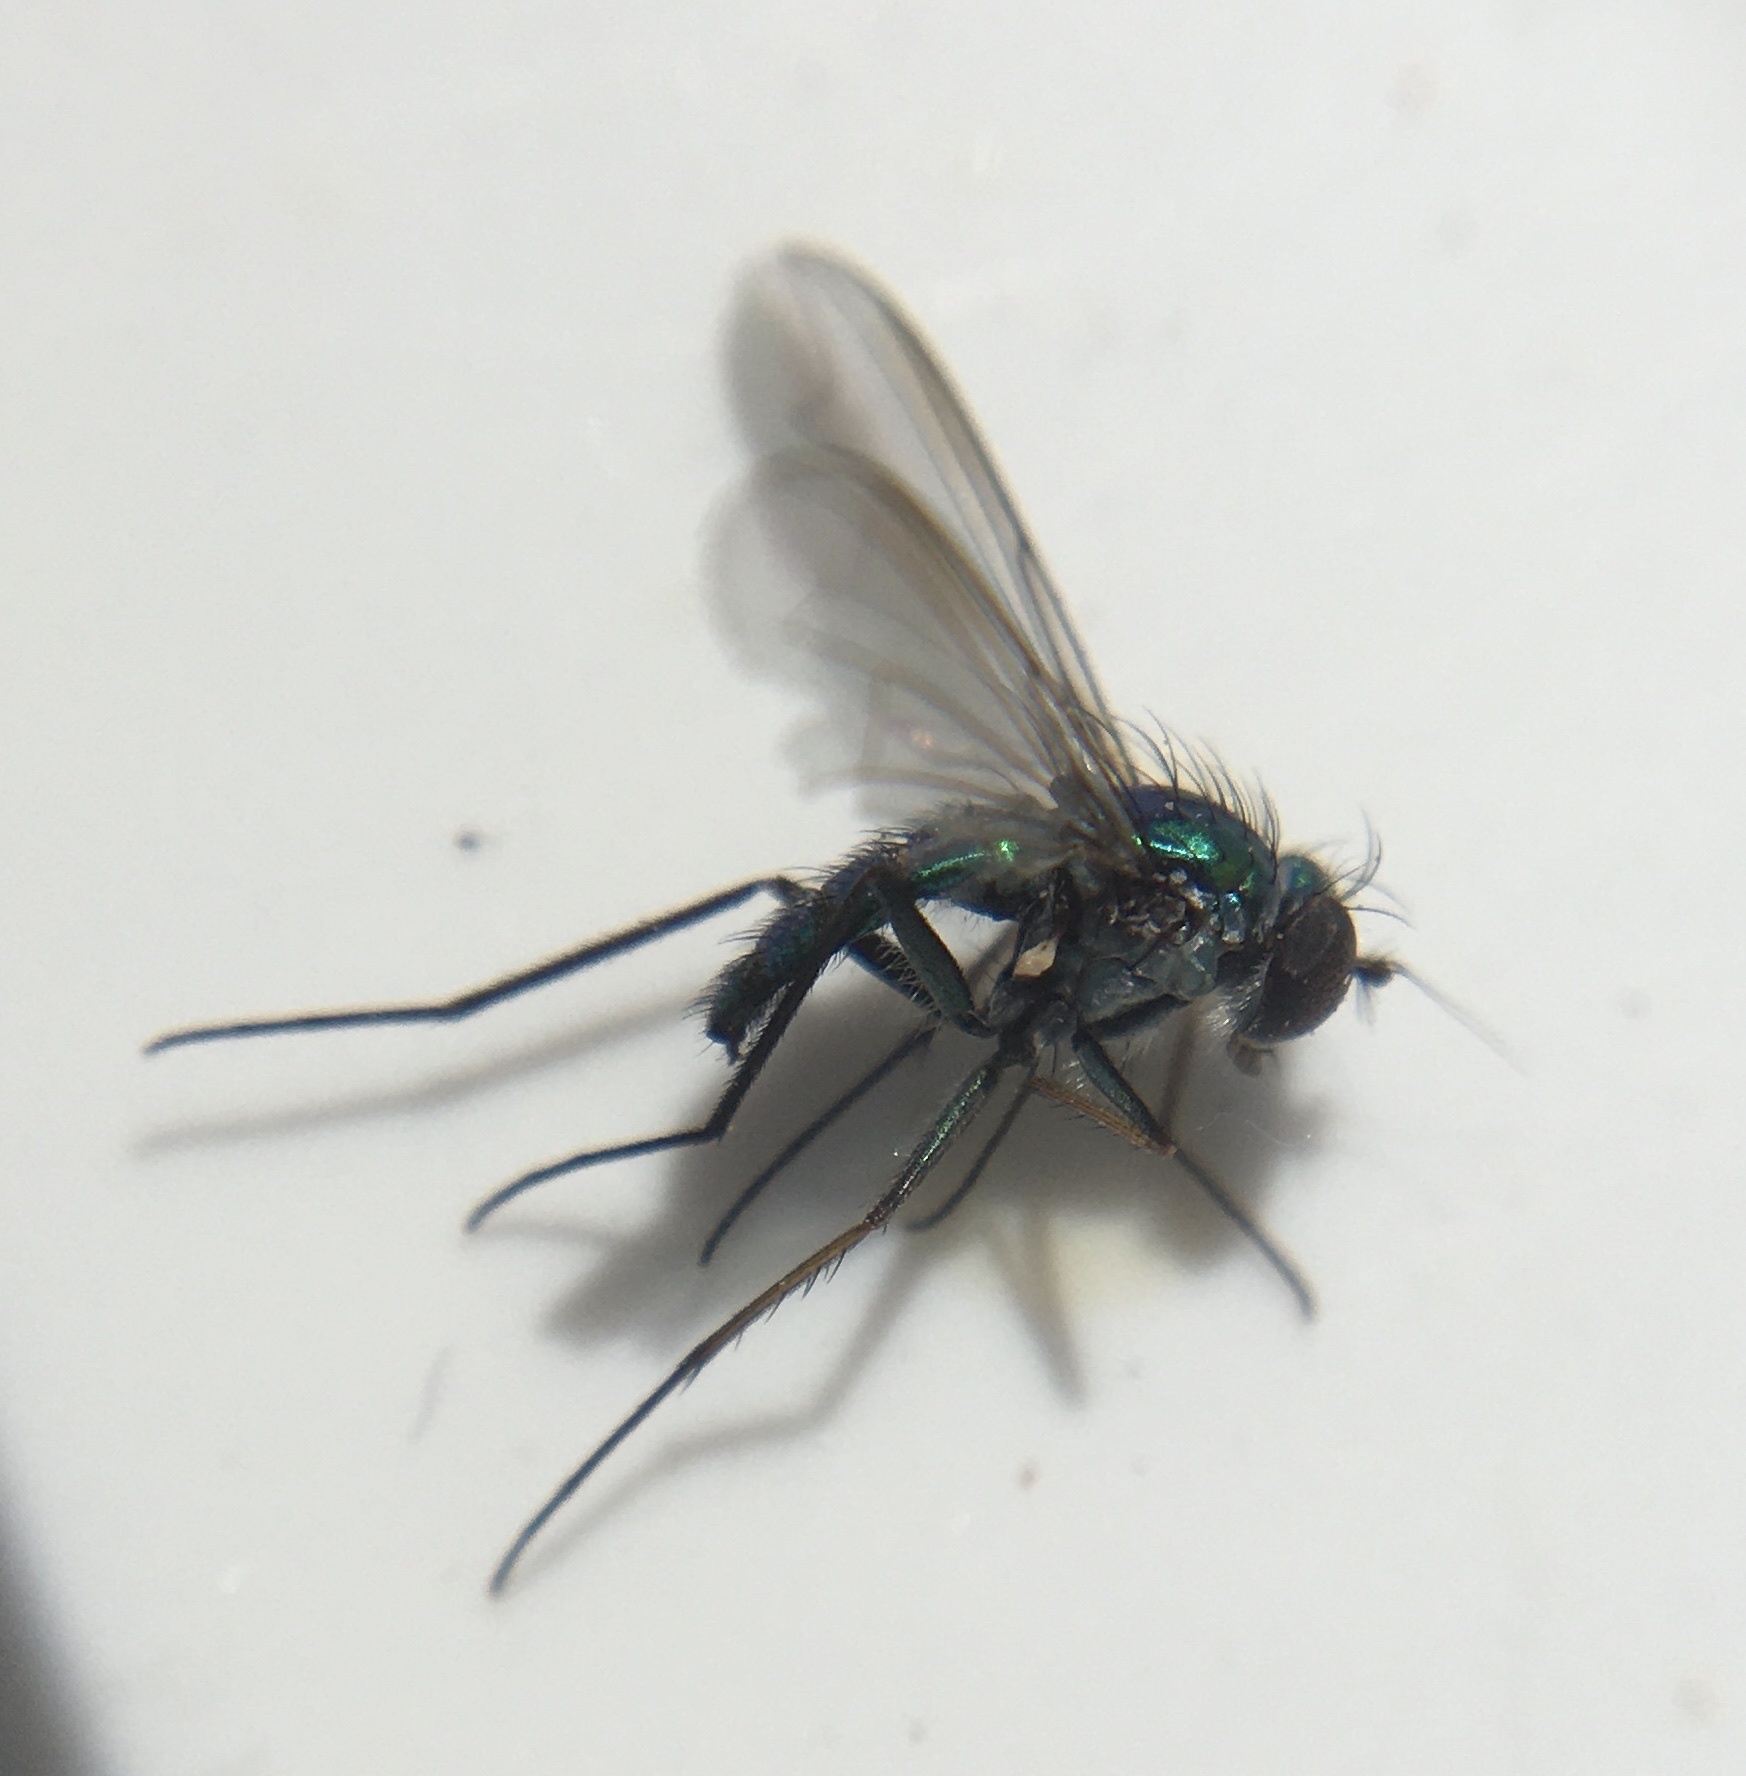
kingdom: Animalia
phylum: Arthropoda
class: Insecta
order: Diptera
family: Dolichopodidae
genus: Condylostylus
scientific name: Condylostylus longicornis
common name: Long-legged fly
